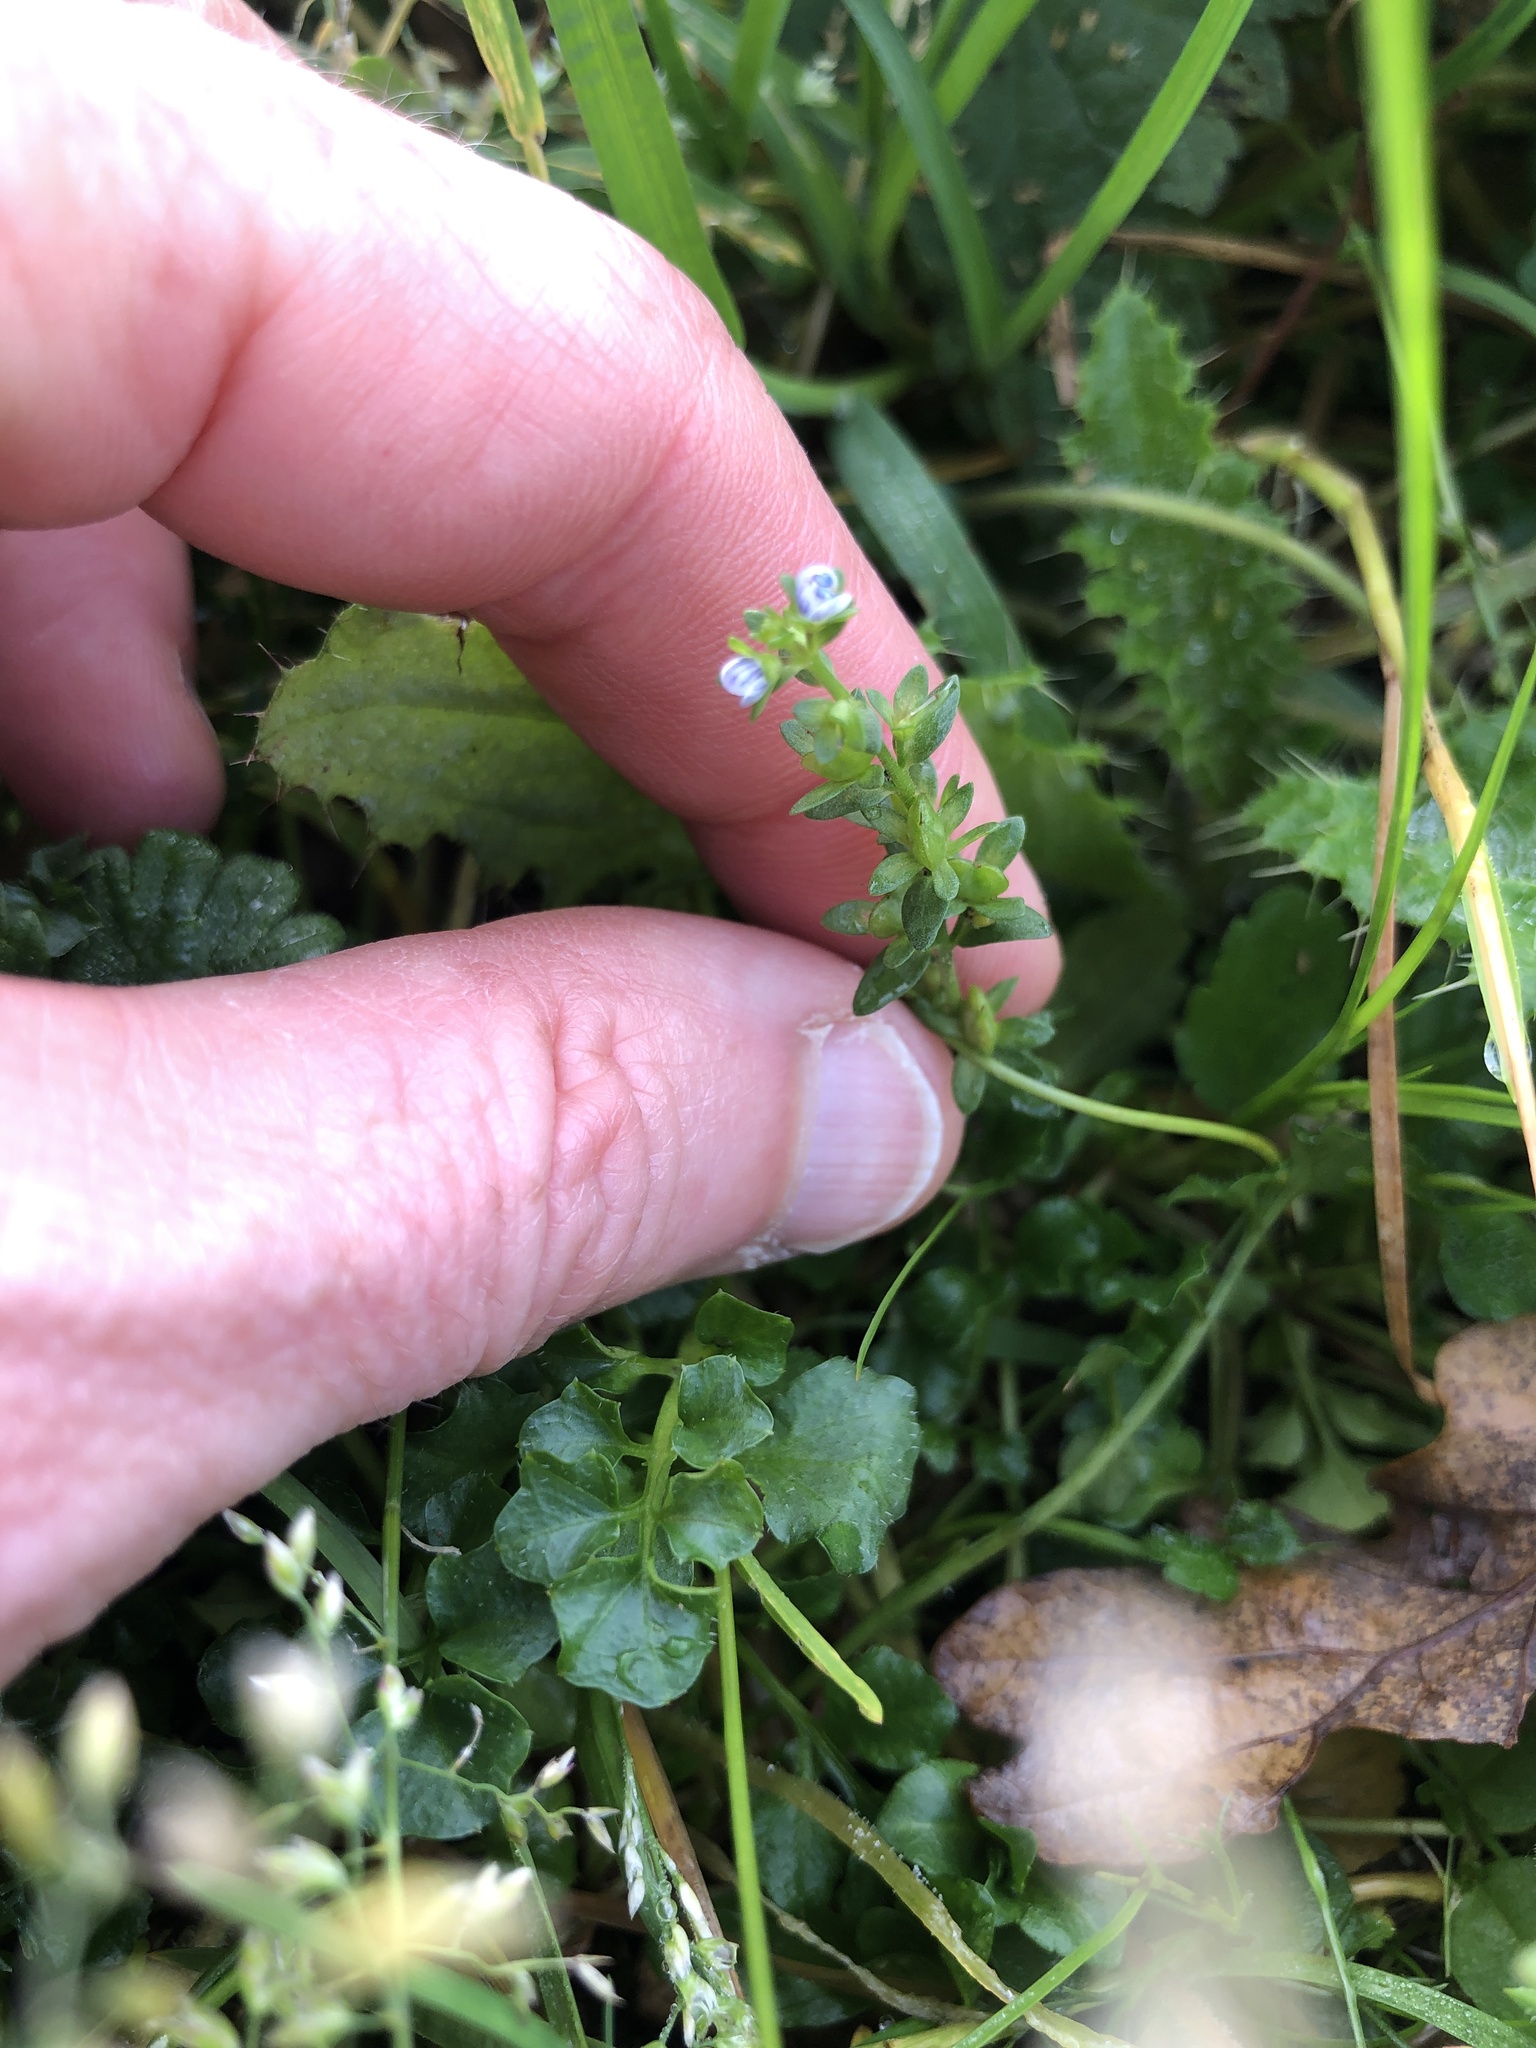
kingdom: Plantae
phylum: Tracheophyta
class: Magnoliopsida
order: Lamiales
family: Plantaginaceae
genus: Veronica
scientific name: Veronica serpyllifolia
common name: Thyme-leaved speedwell
